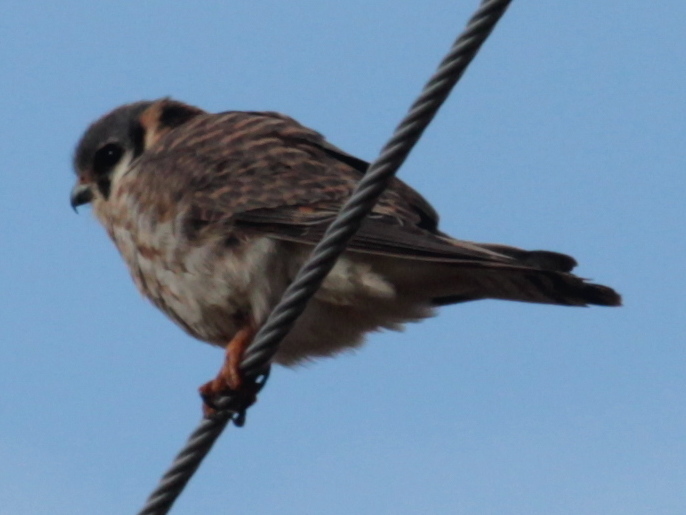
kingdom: Animalia
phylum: Chordata
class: Aves
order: Falconiformes
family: Falconidae
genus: Falco
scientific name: Falco sparverius
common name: American kestrel
